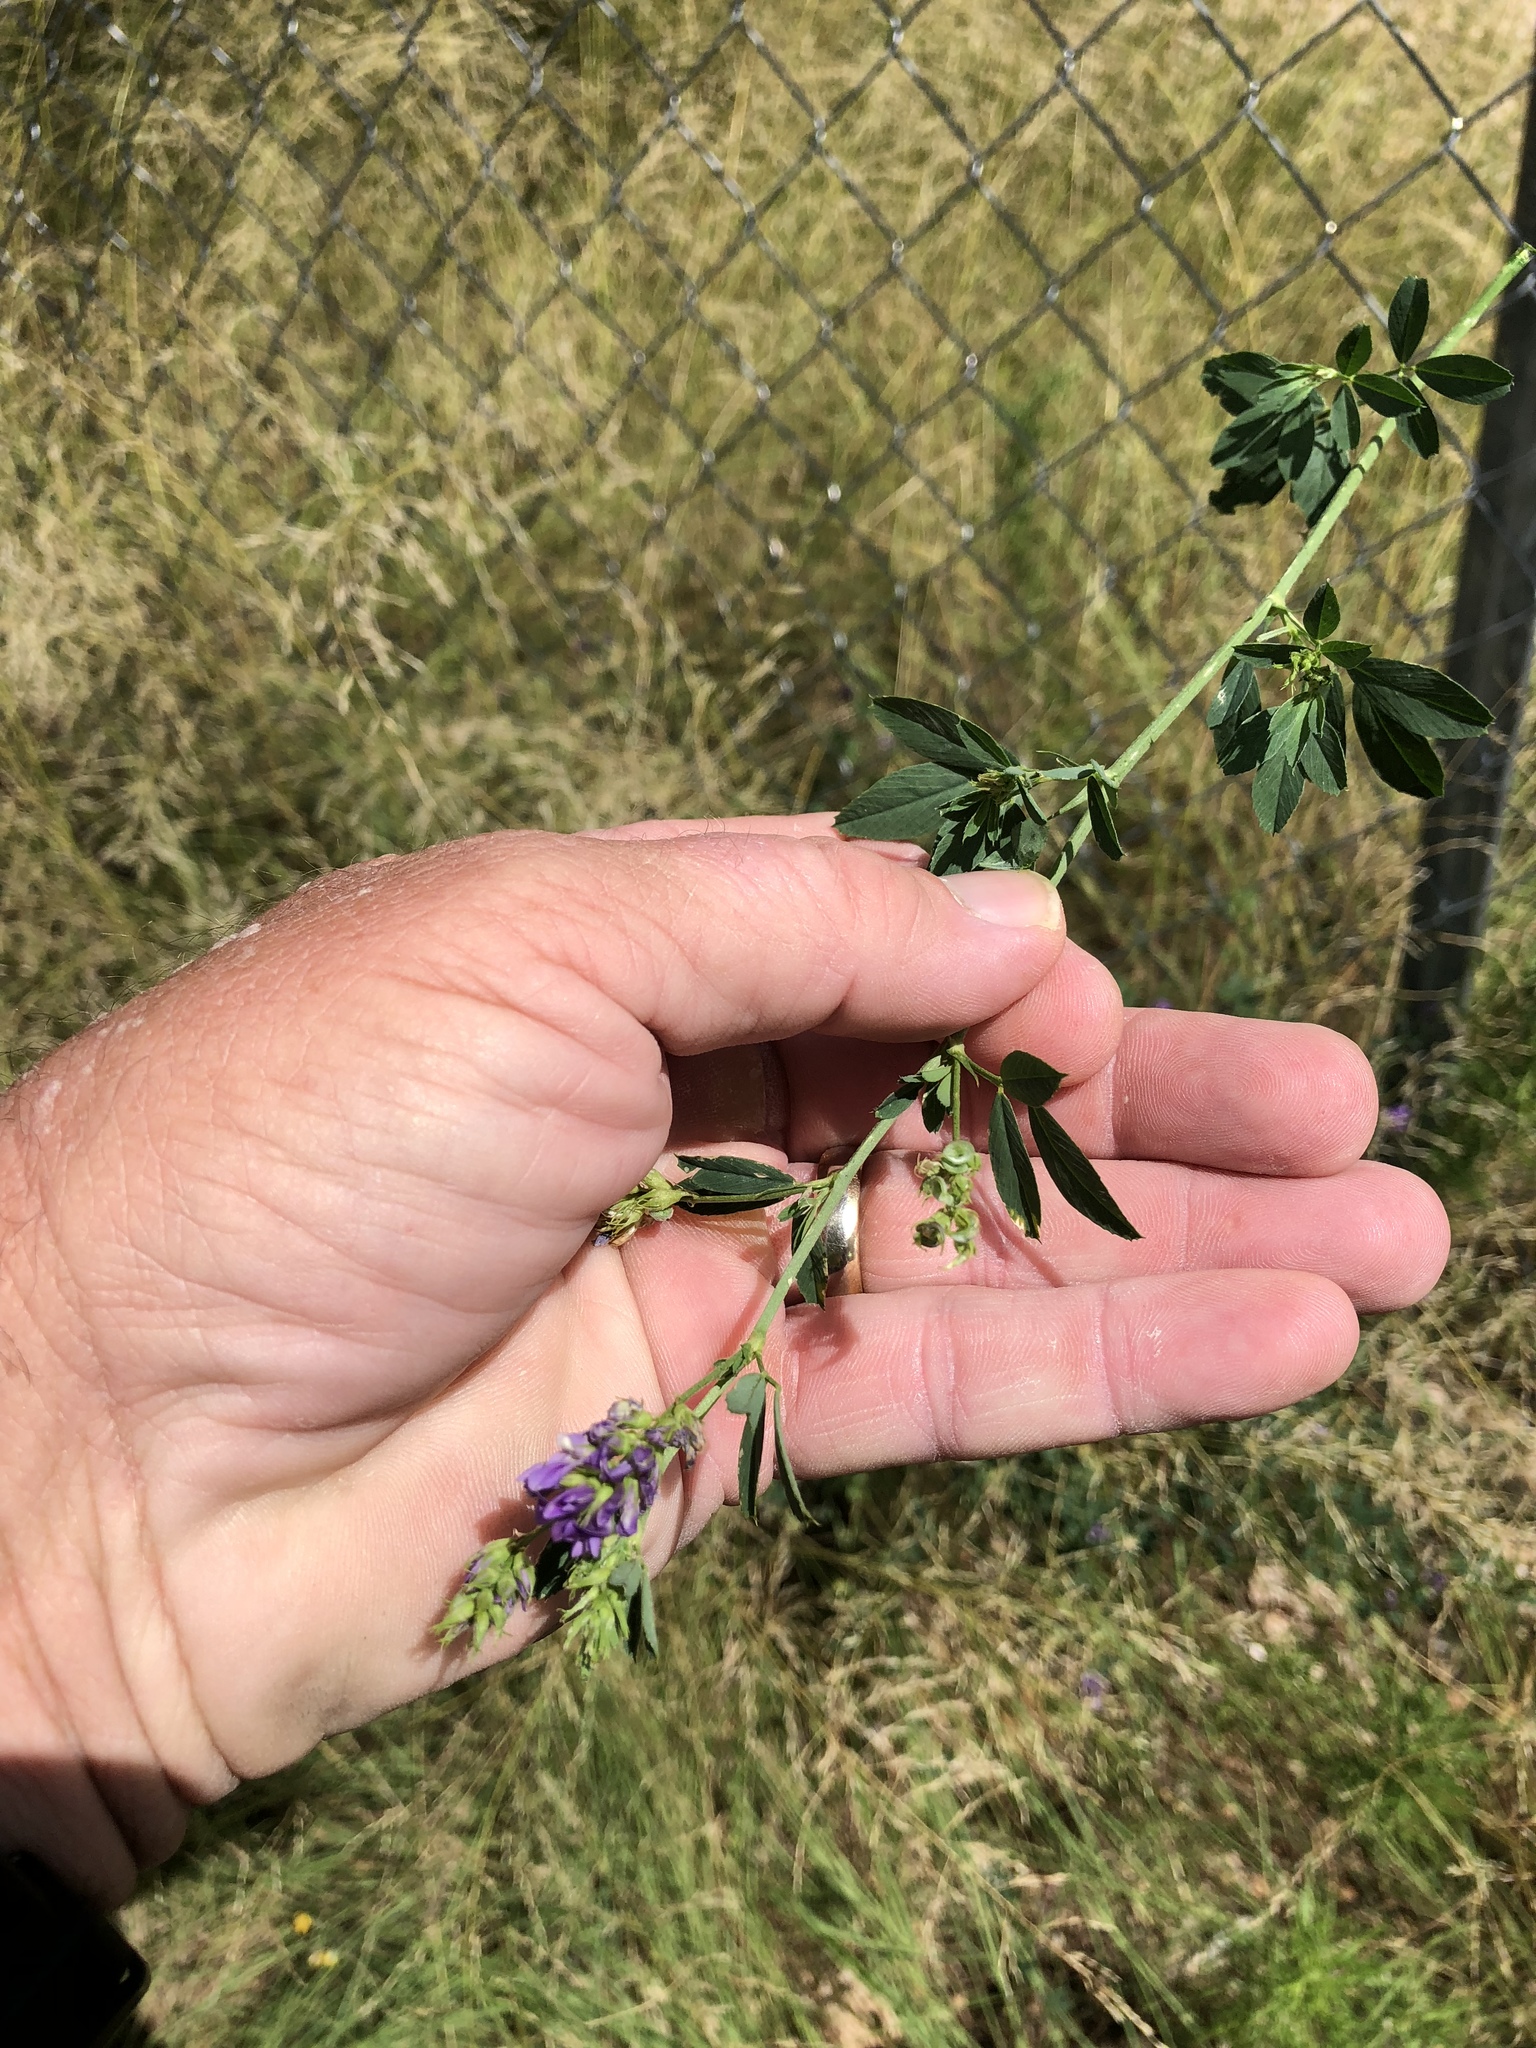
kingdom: Plantae
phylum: Tracheophyta
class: Magnoliopsida
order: Fabales
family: Fabaceae
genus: Medicago
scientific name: Medicago sativa
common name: Alfalfa
